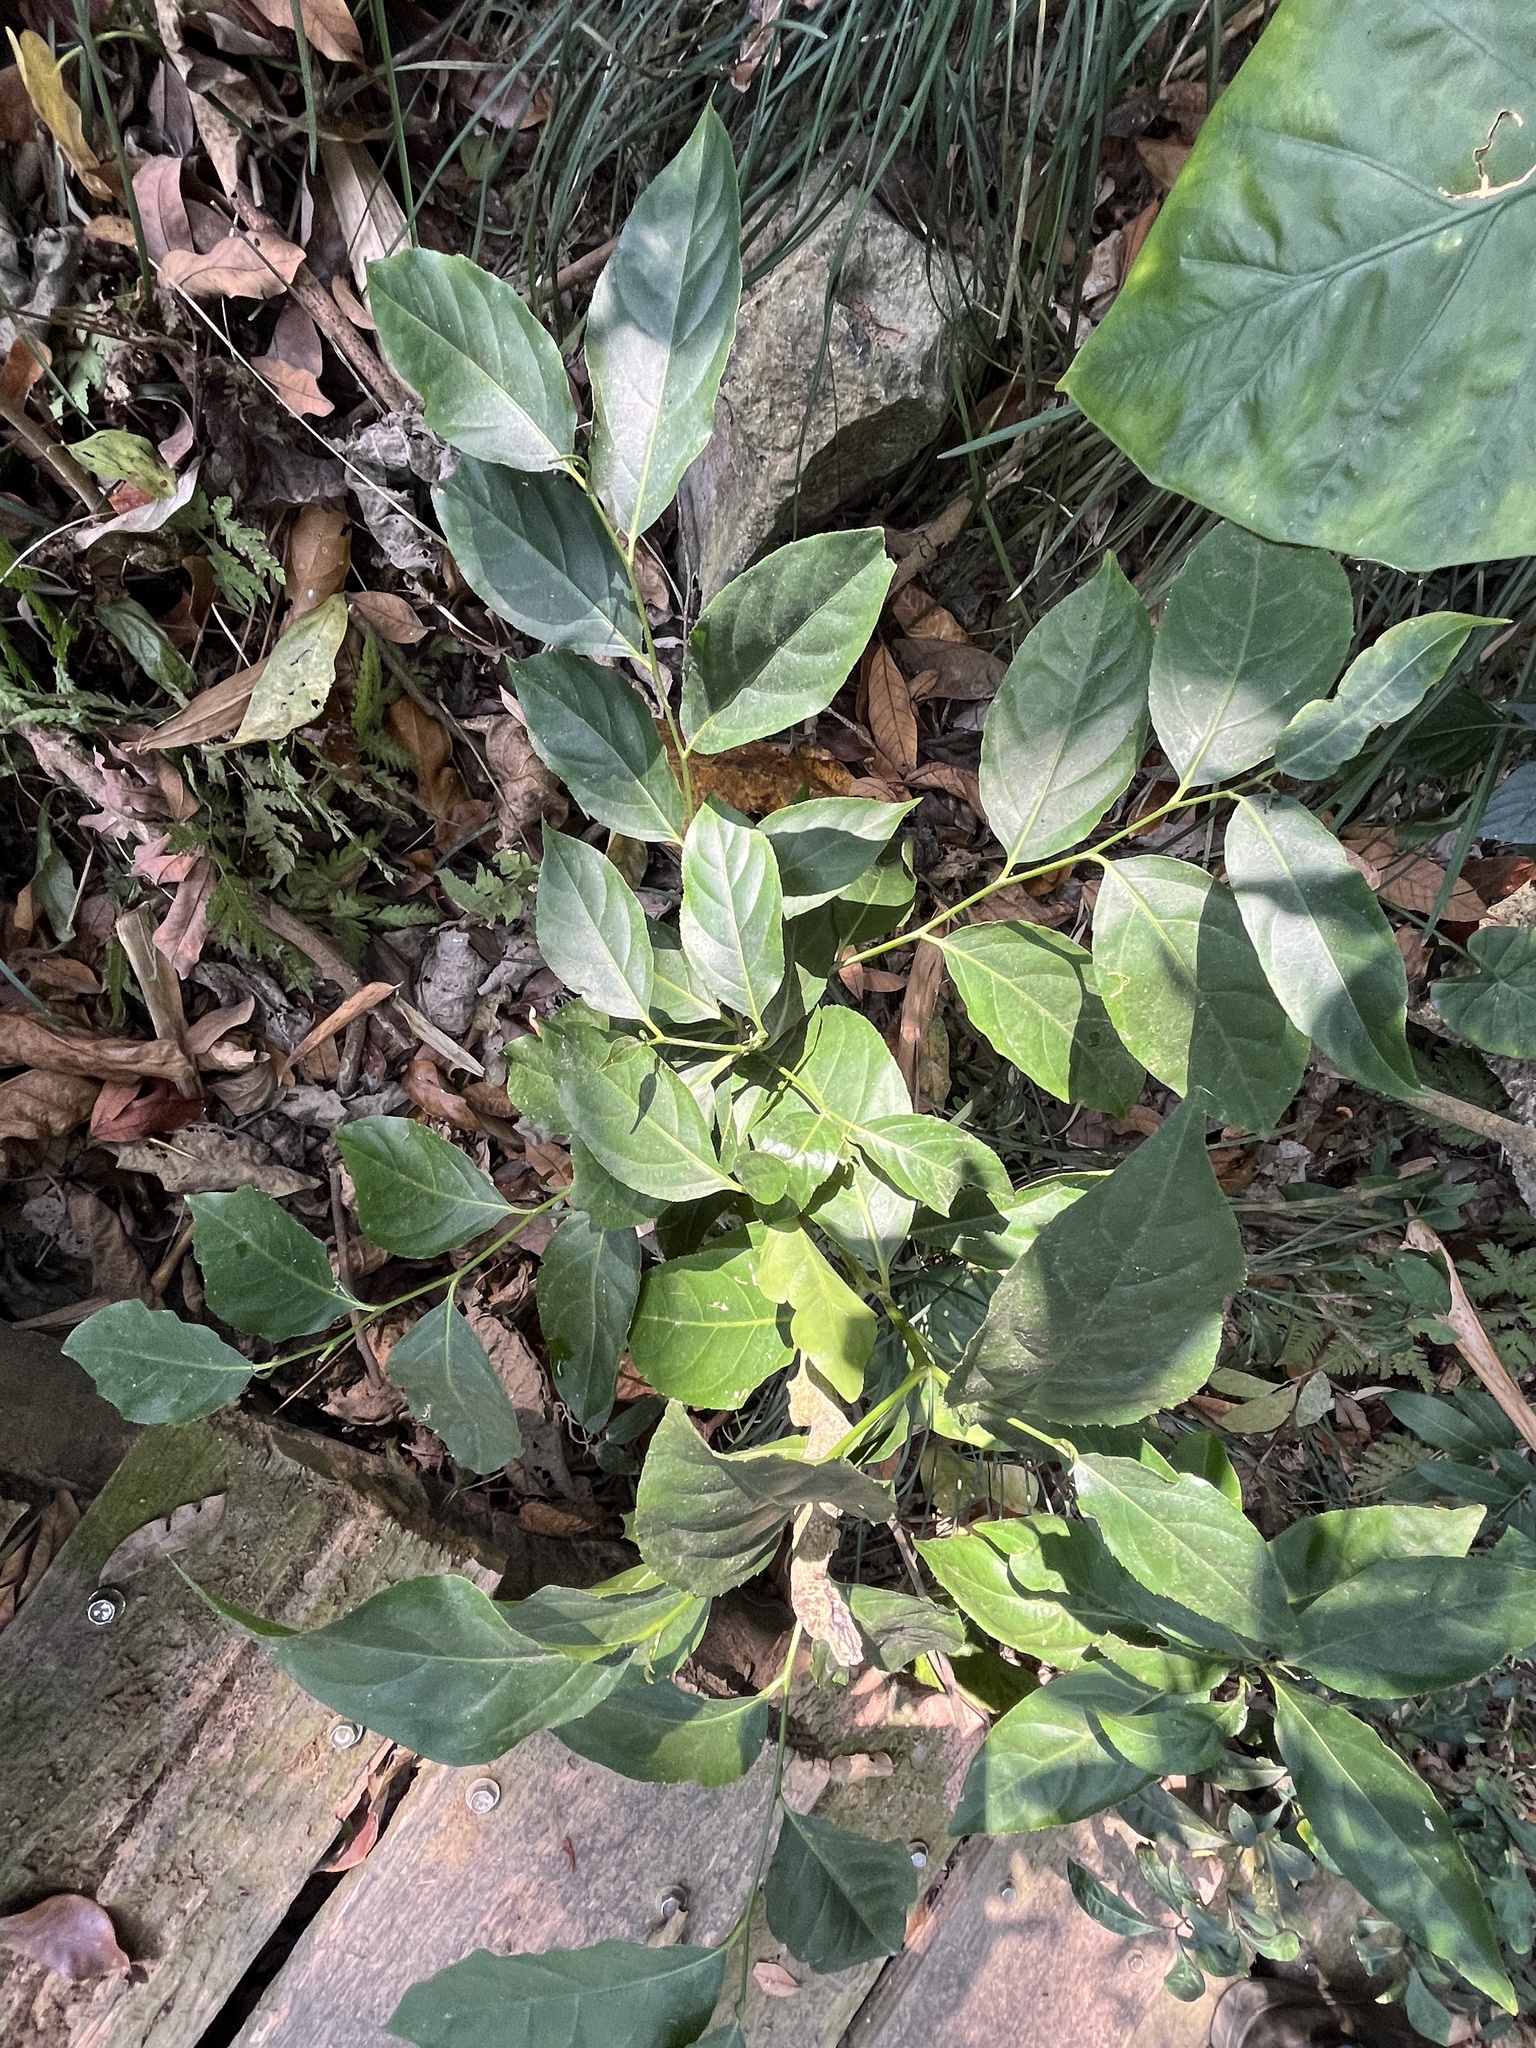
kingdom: Plantae
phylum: Tracheophyta
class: Magnoliopsida
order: Malpighiales
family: Salicaceae
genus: Casearia
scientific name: Casearia glomerata
